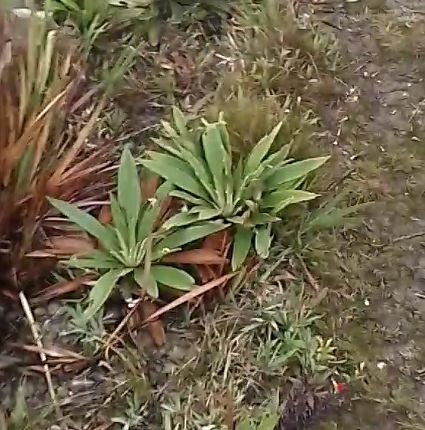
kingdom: Plantae
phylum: Tracheophyta
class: Magnoliopsida
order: Asterales
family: Asteraceae
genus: Espeletia
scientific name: Espeletia bracteosa
